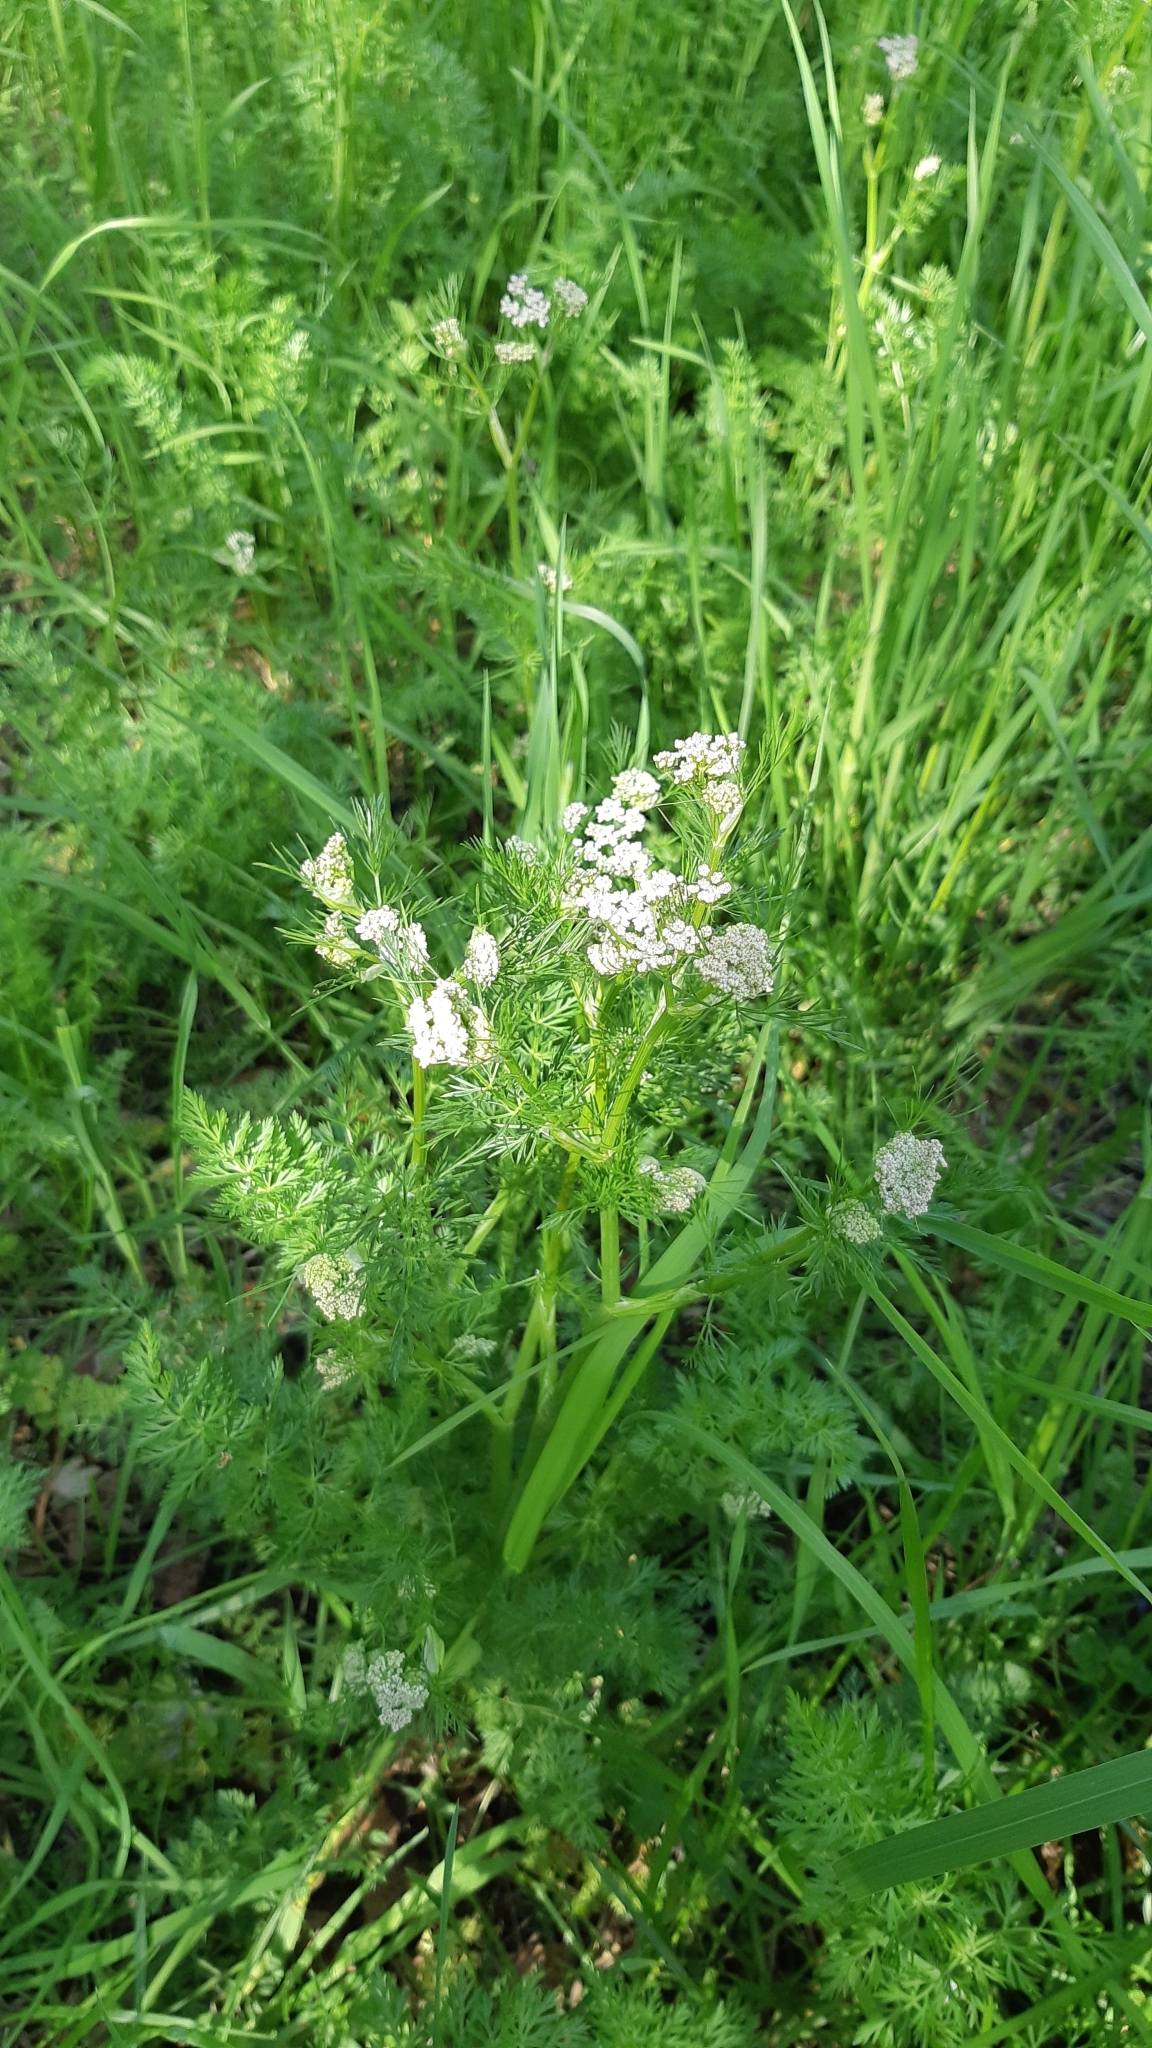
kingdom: Plantae
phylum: Tracheophyta
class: Magnoliopsida
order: Apiales
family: Apiaceae
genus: Carum
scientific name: Carum carvi
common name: Caraway
